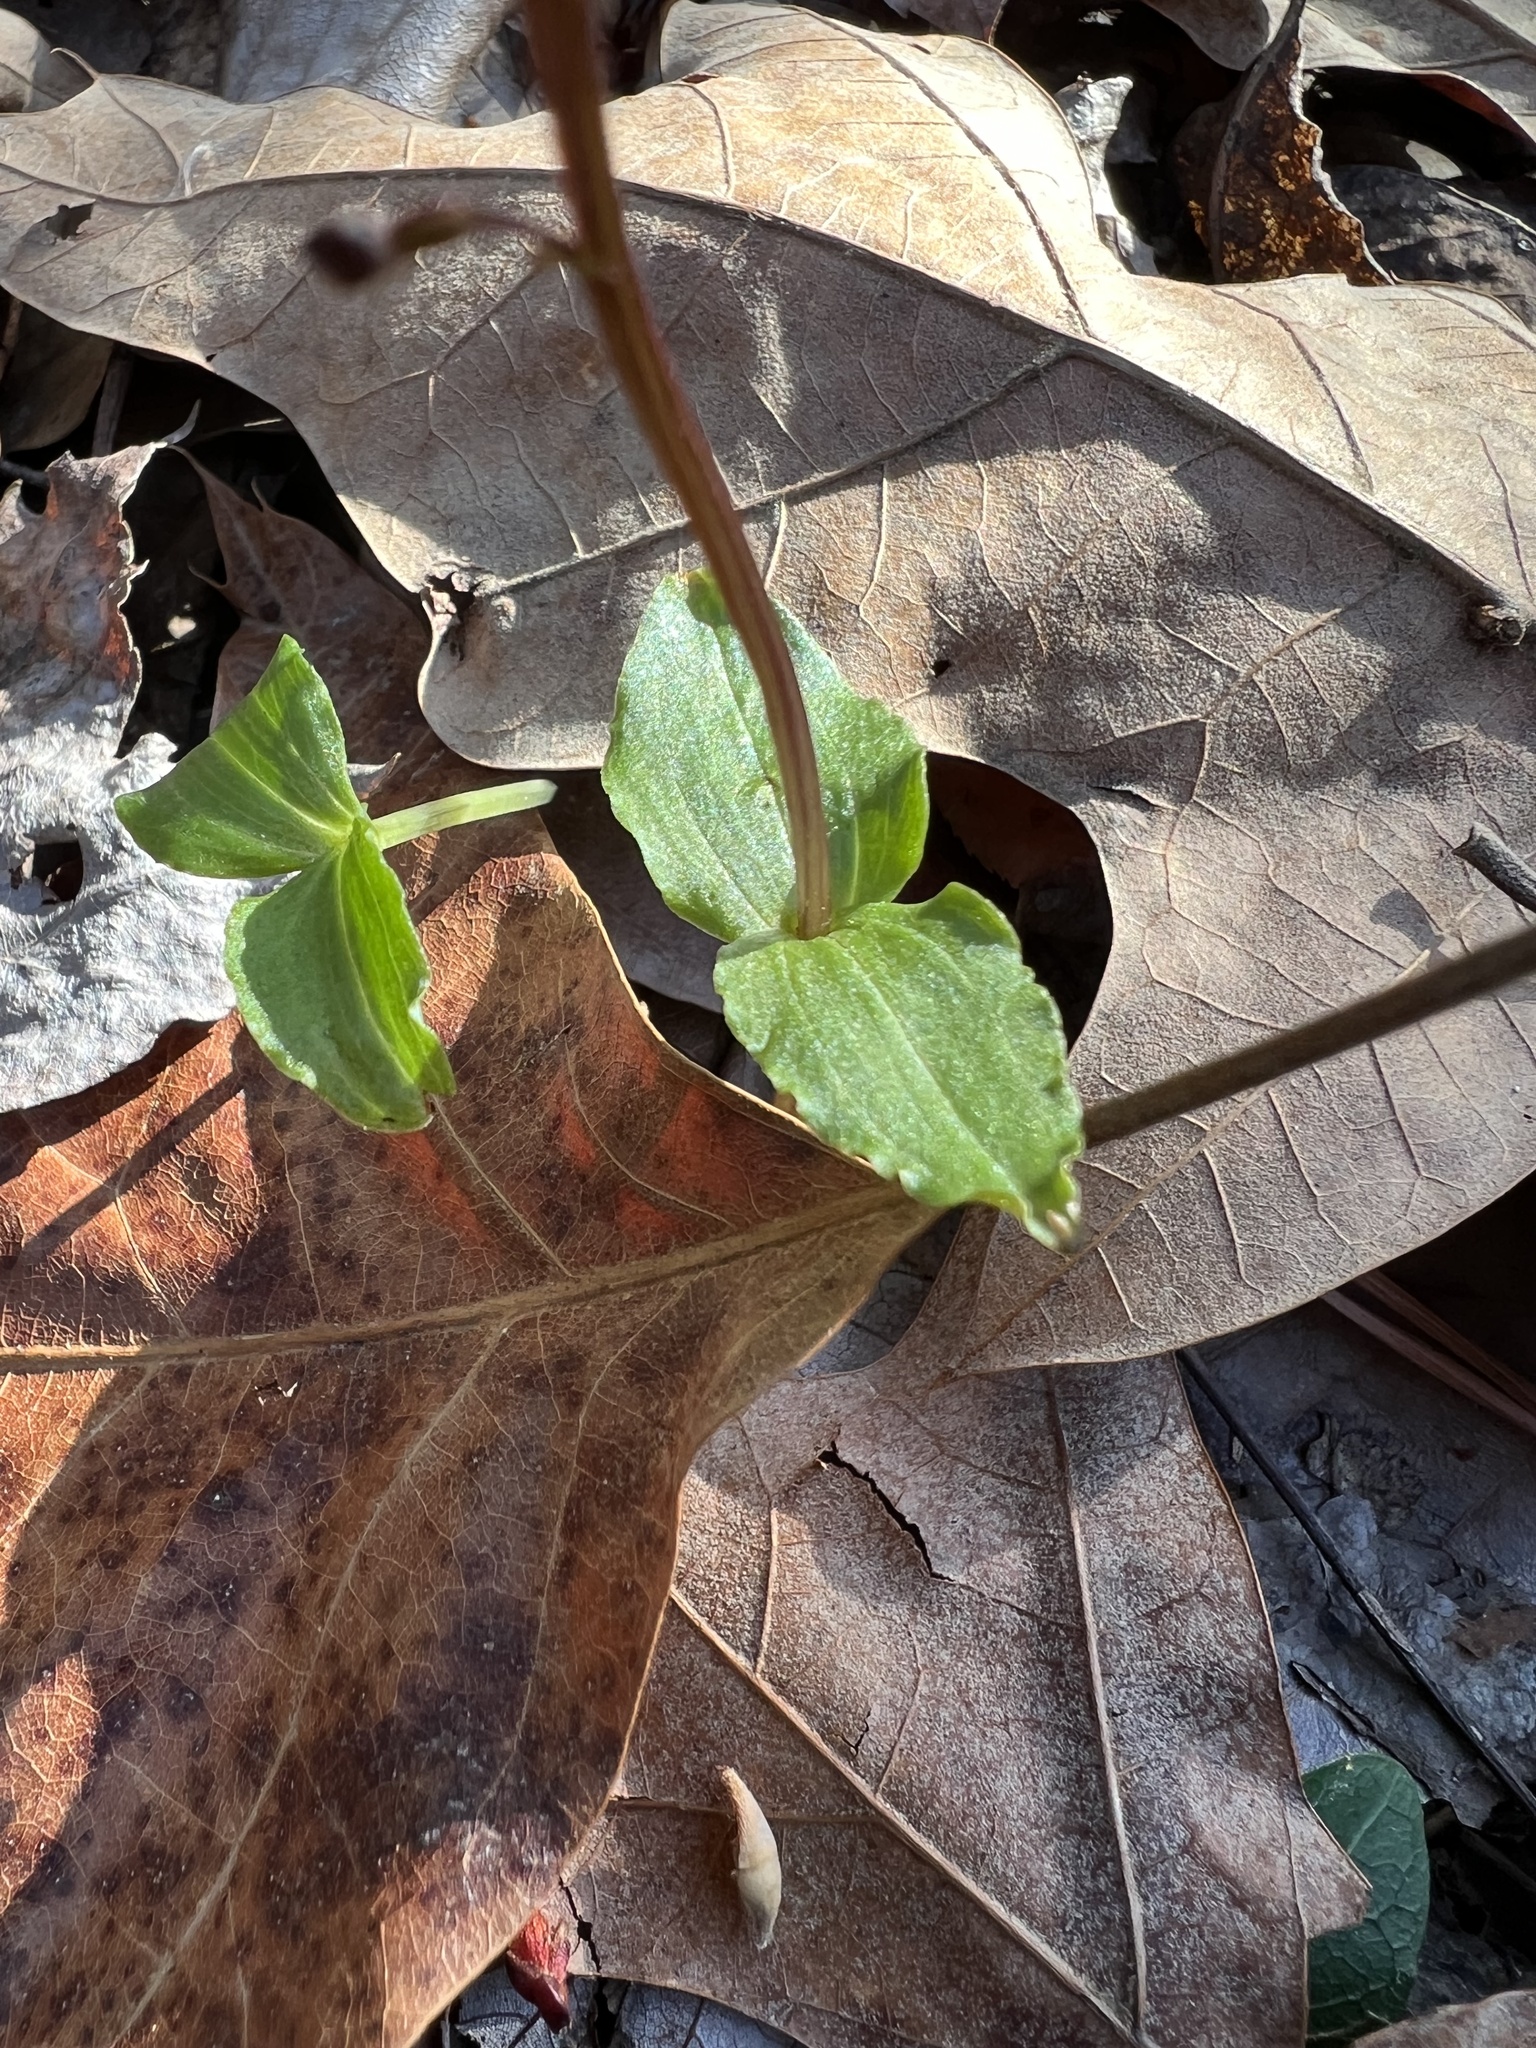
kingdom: Plantae
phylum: Tracheophyta
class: Liliopsida
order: Asparagales
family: Orchidaceae
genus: Neottia
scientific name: Neottia bifolia
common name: Southern twayblade
